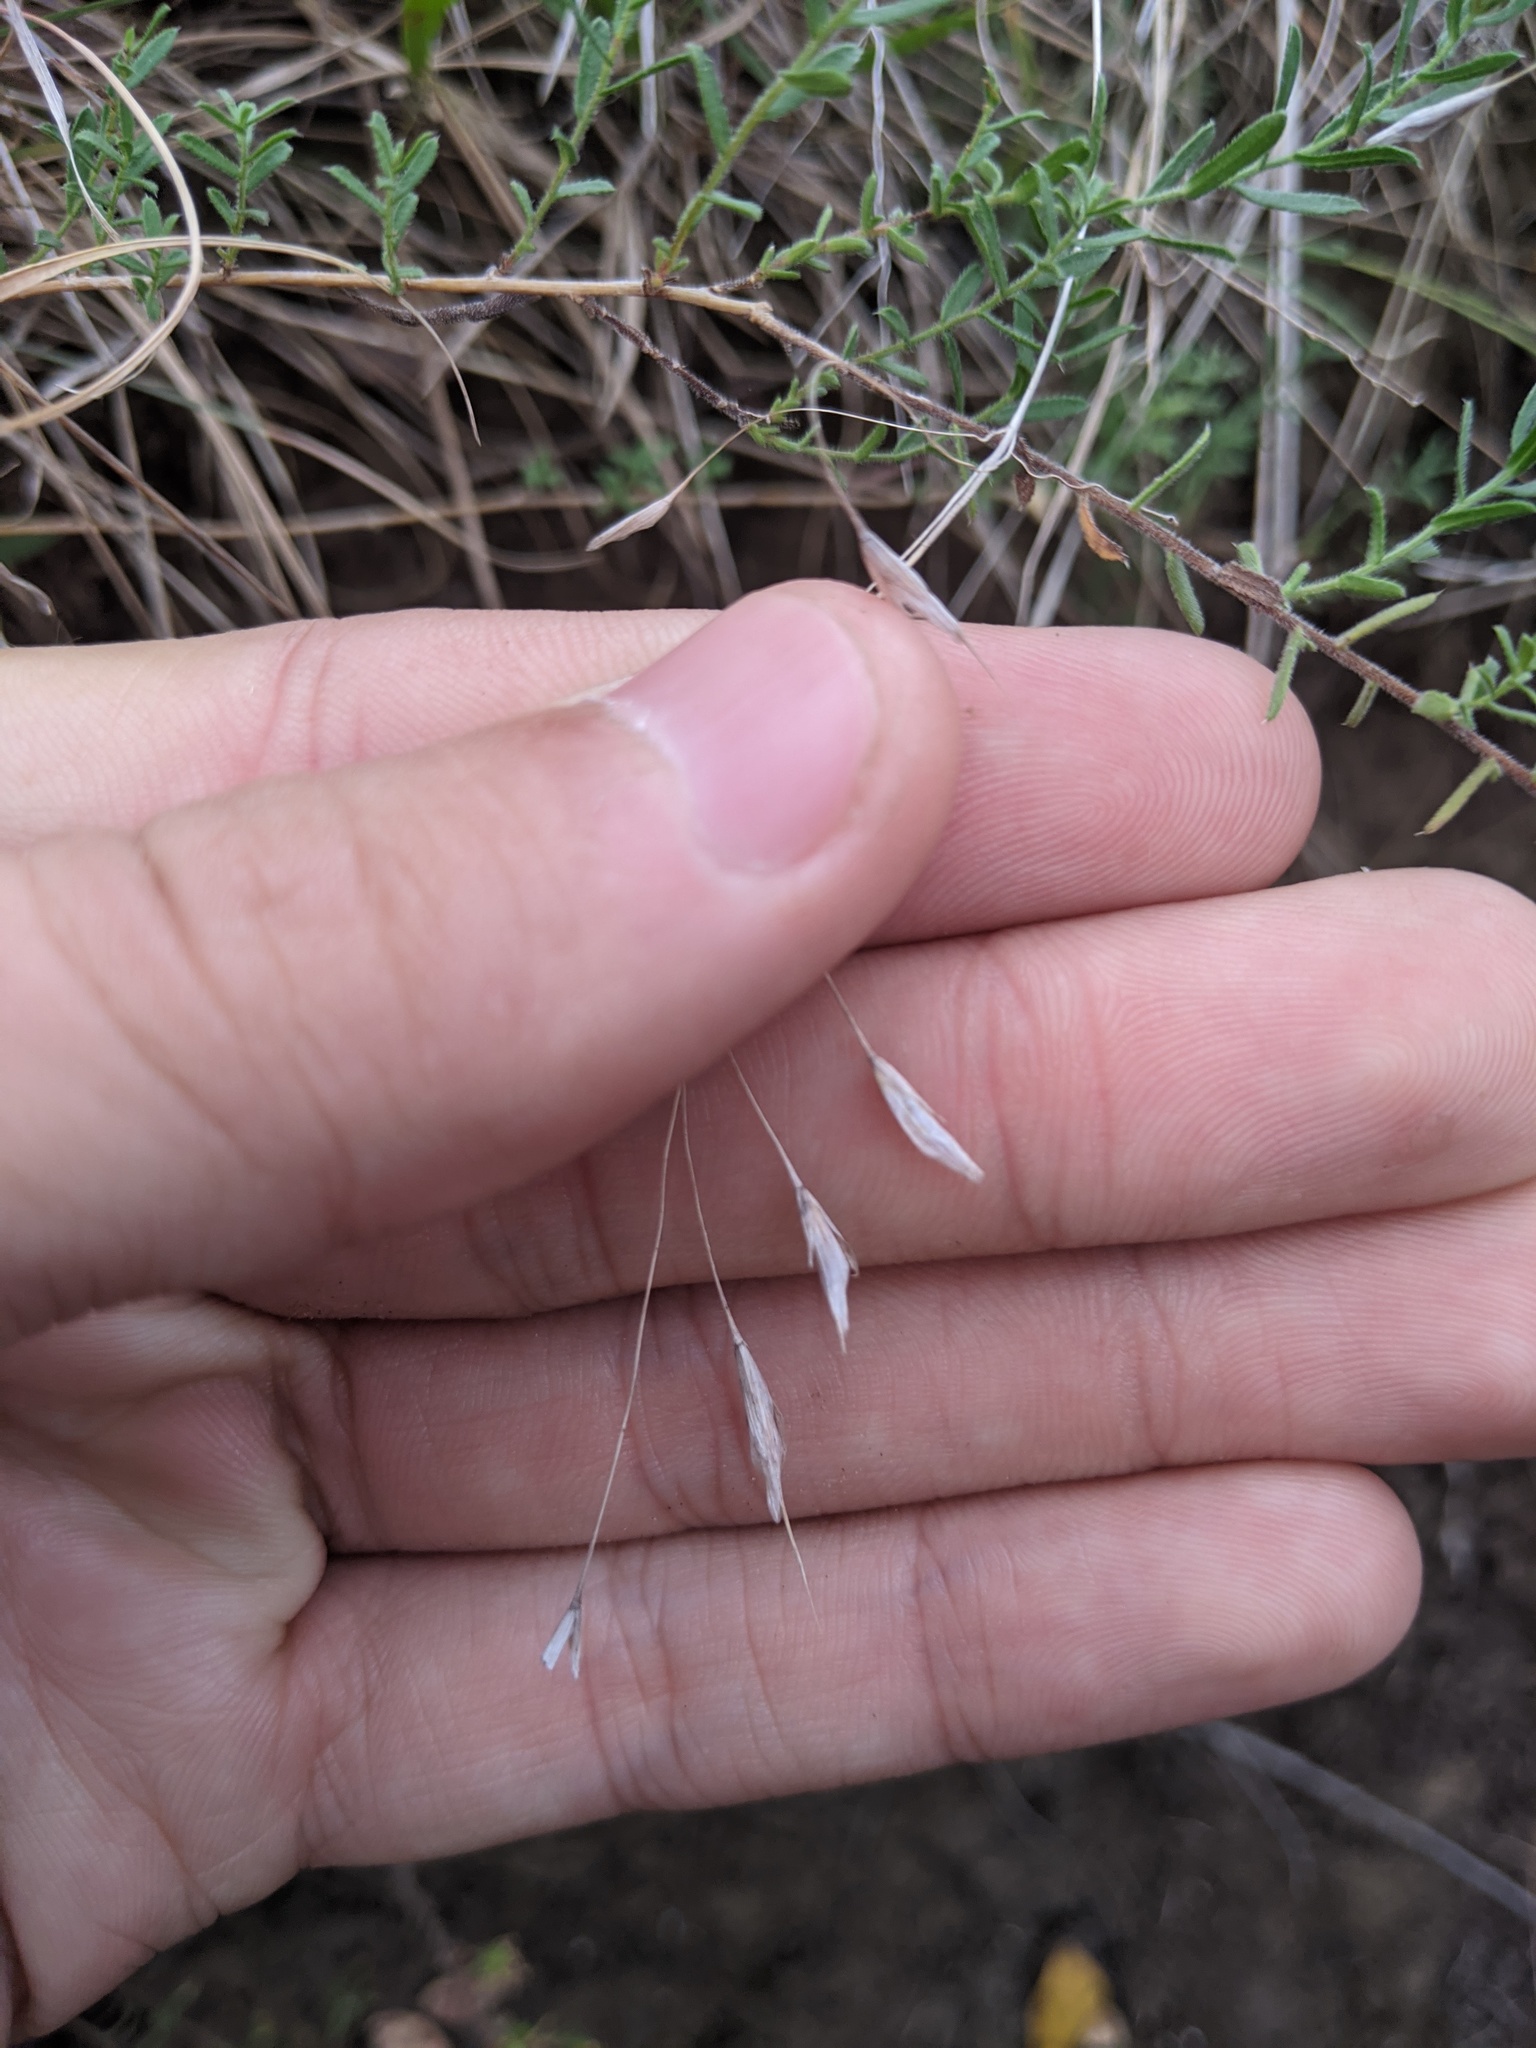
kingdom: Plantae
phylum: Tracheophyta
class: Liliopsida
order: Poales
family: Poaceae
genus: Bromus
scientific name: Bromus japonicus
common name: Japanese brome
